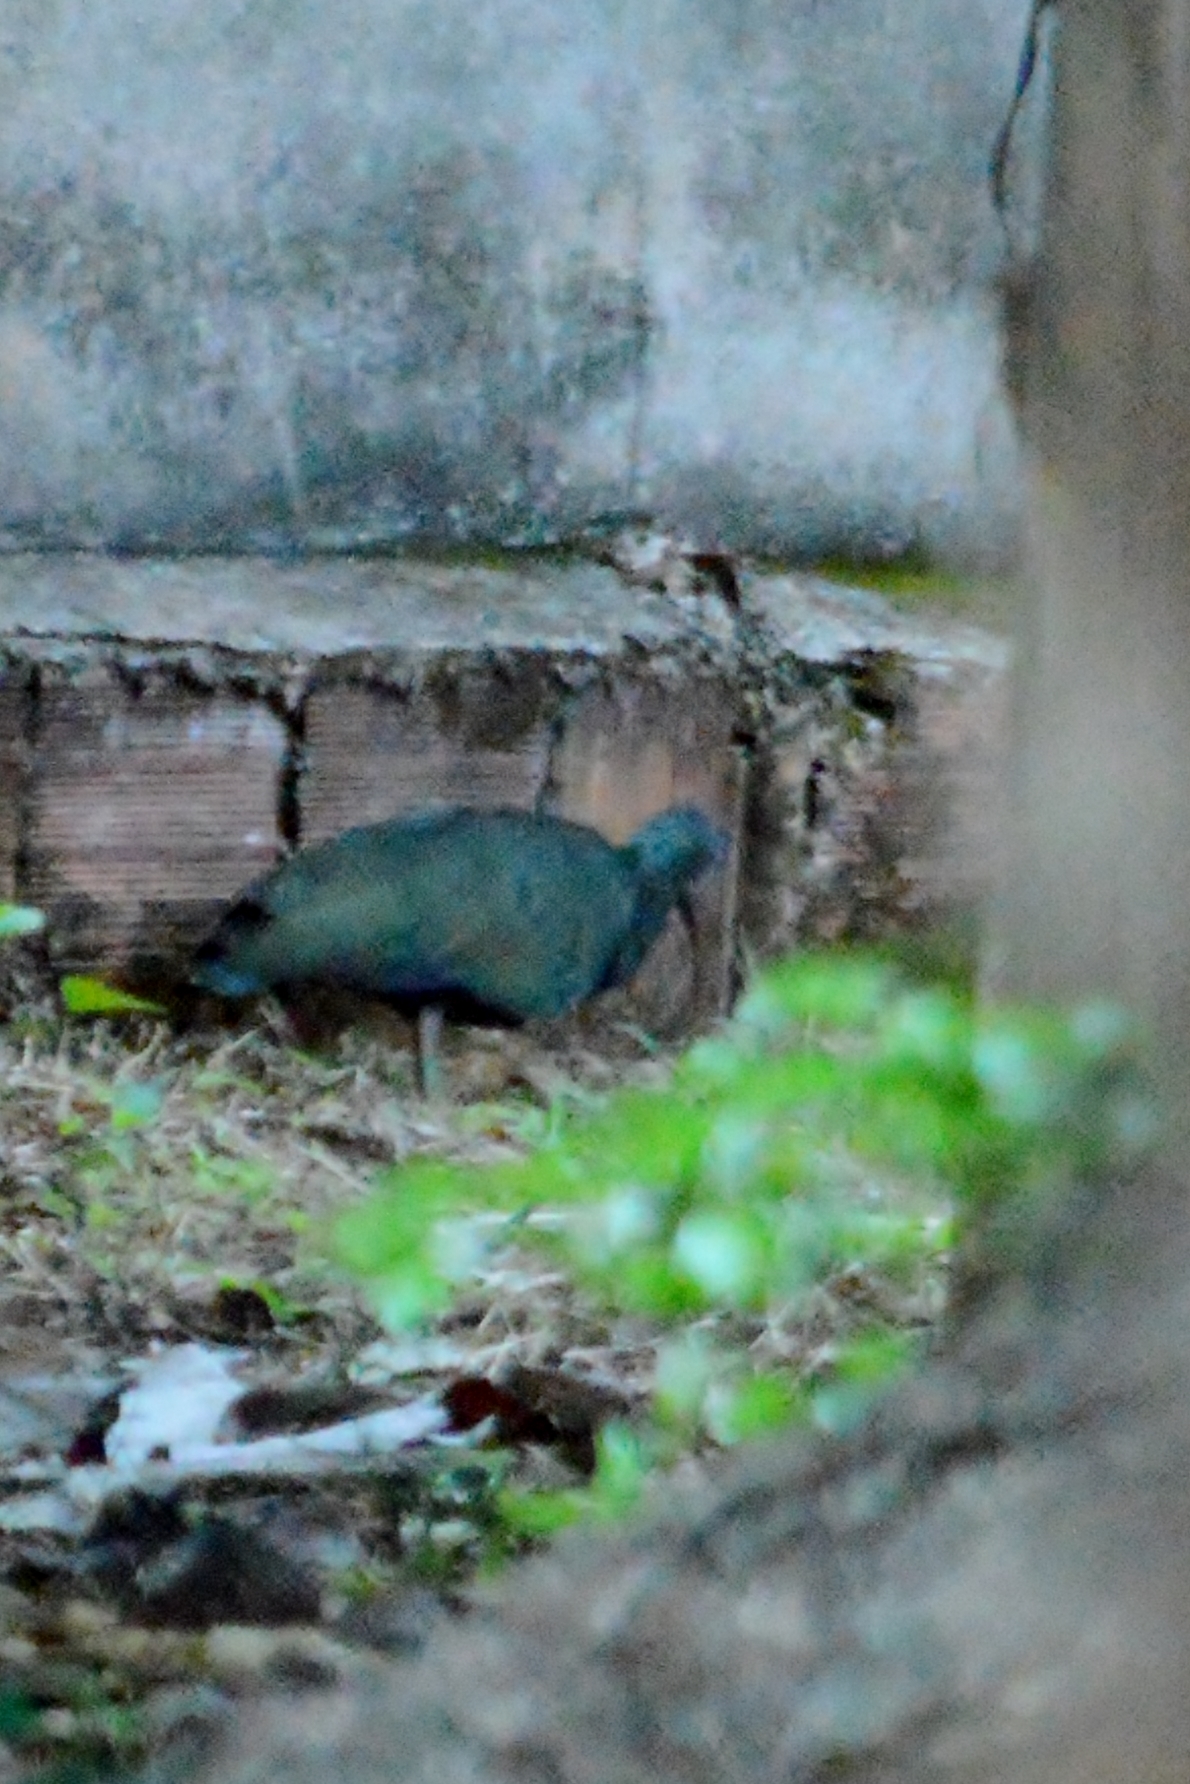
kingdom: Animalia
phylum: Chordata
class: Aves
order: Pelecaniformes
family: Threskiornithidae
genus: Mesembrinibis
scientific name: Mesembrinibis cayennensis
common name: Green ibis
